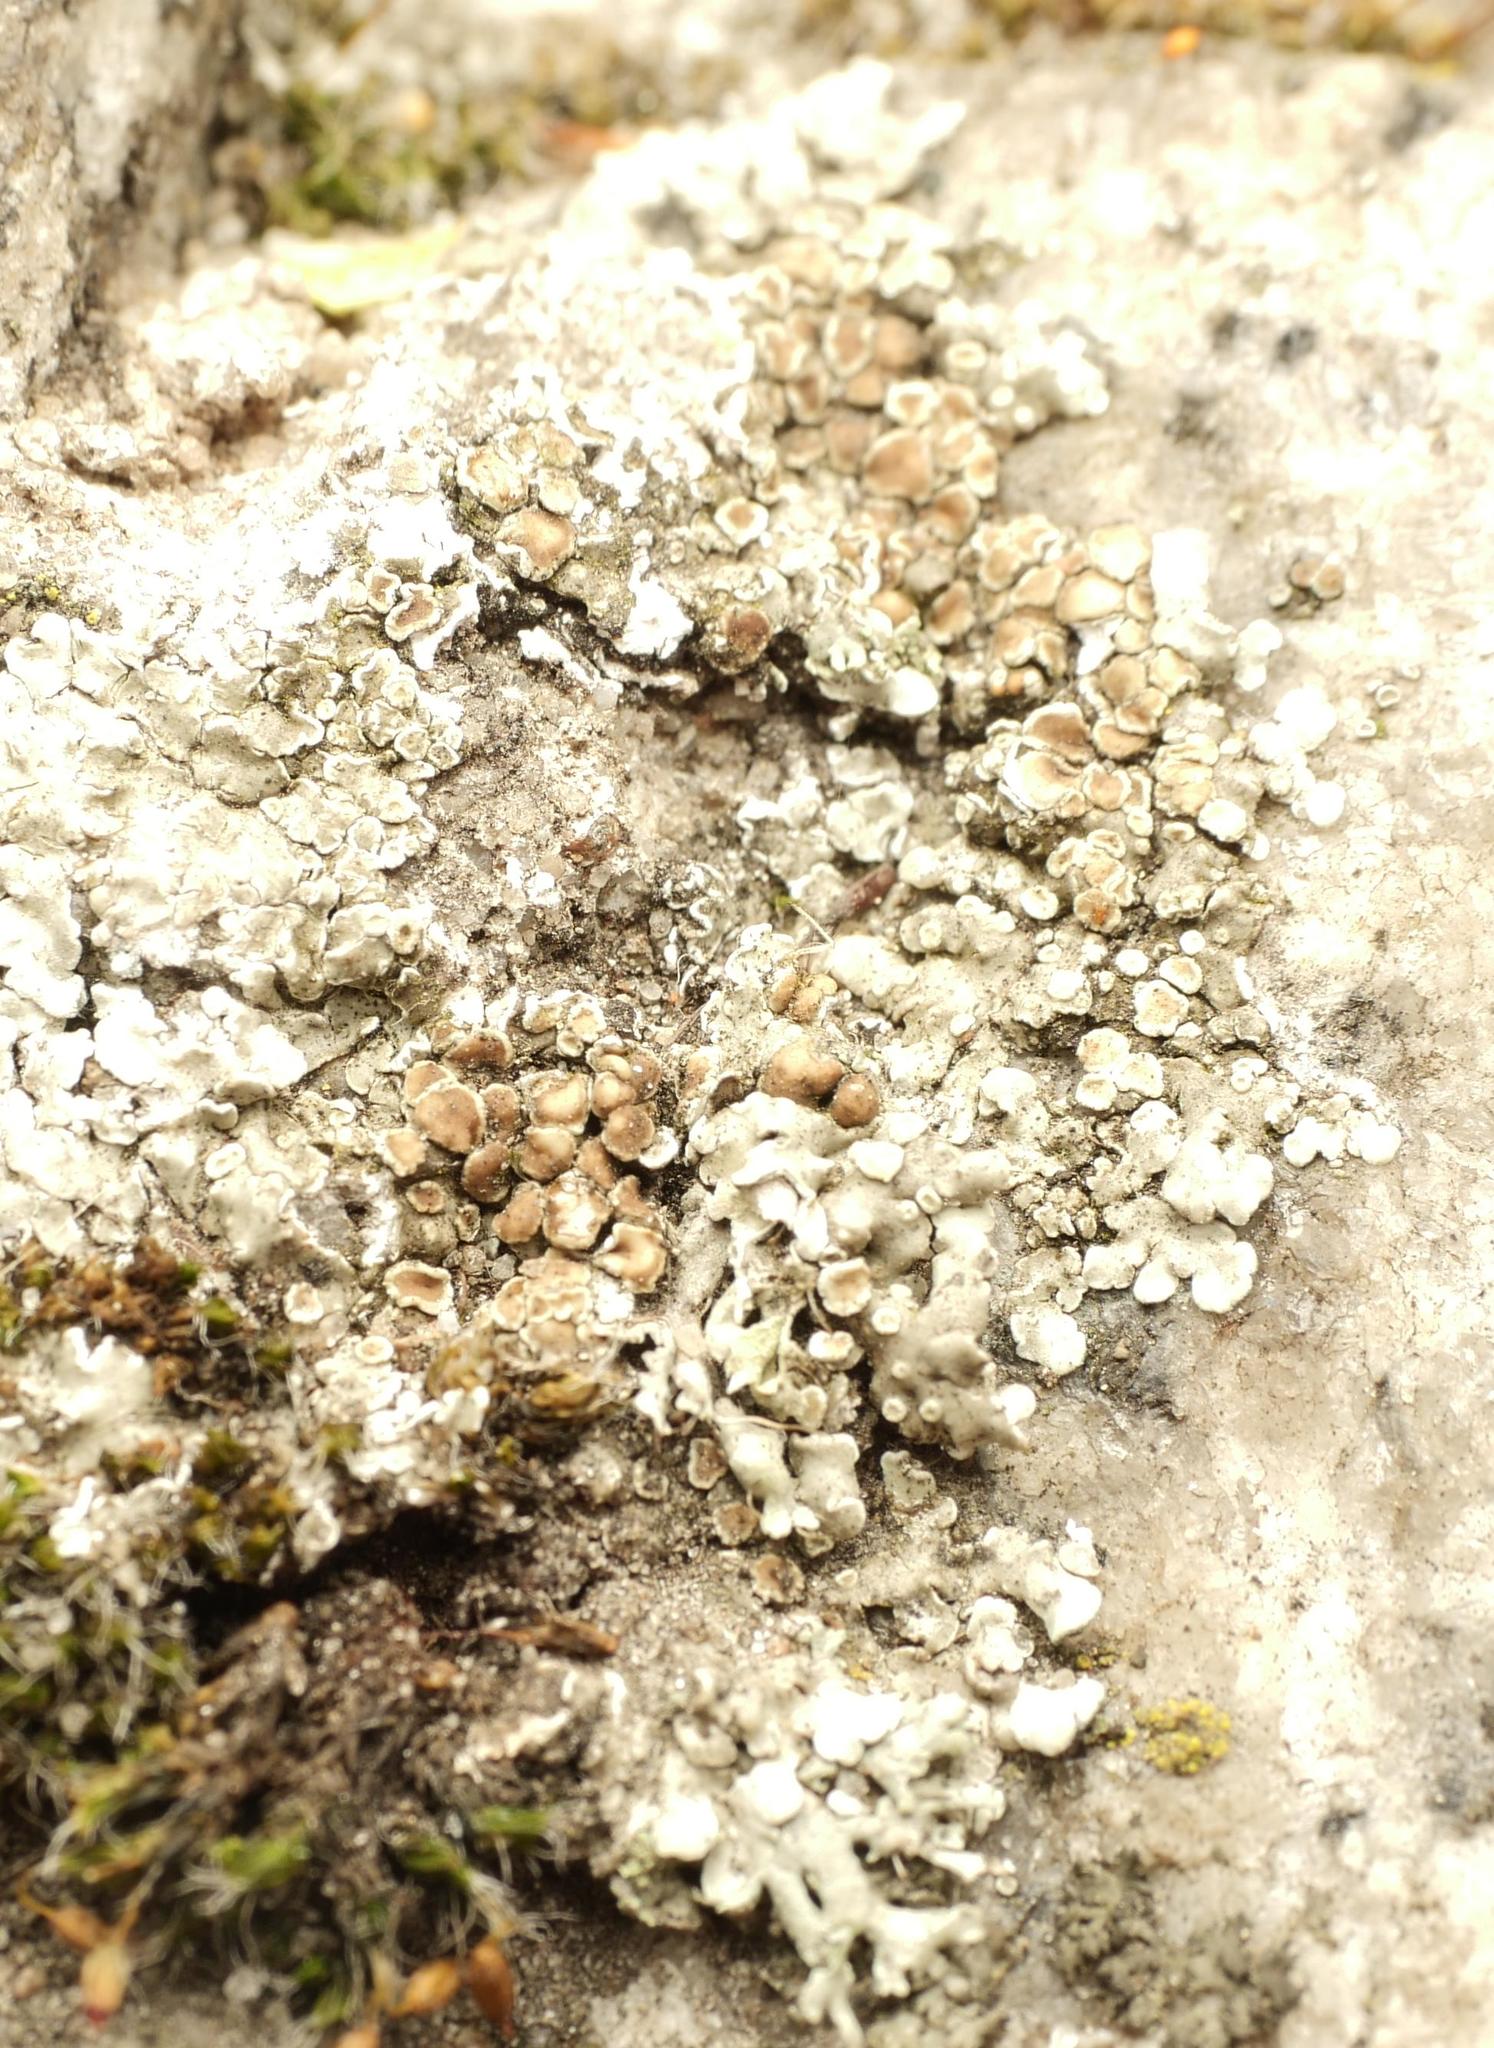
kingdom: Fungi
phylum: Ascomycota
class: Lecanoromycetes
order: Lecanorales
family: Lecanoraceae
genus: Protoparmeliopsis
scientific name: Protoparmeliopsis muralis
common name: Stonewall rim lichen
